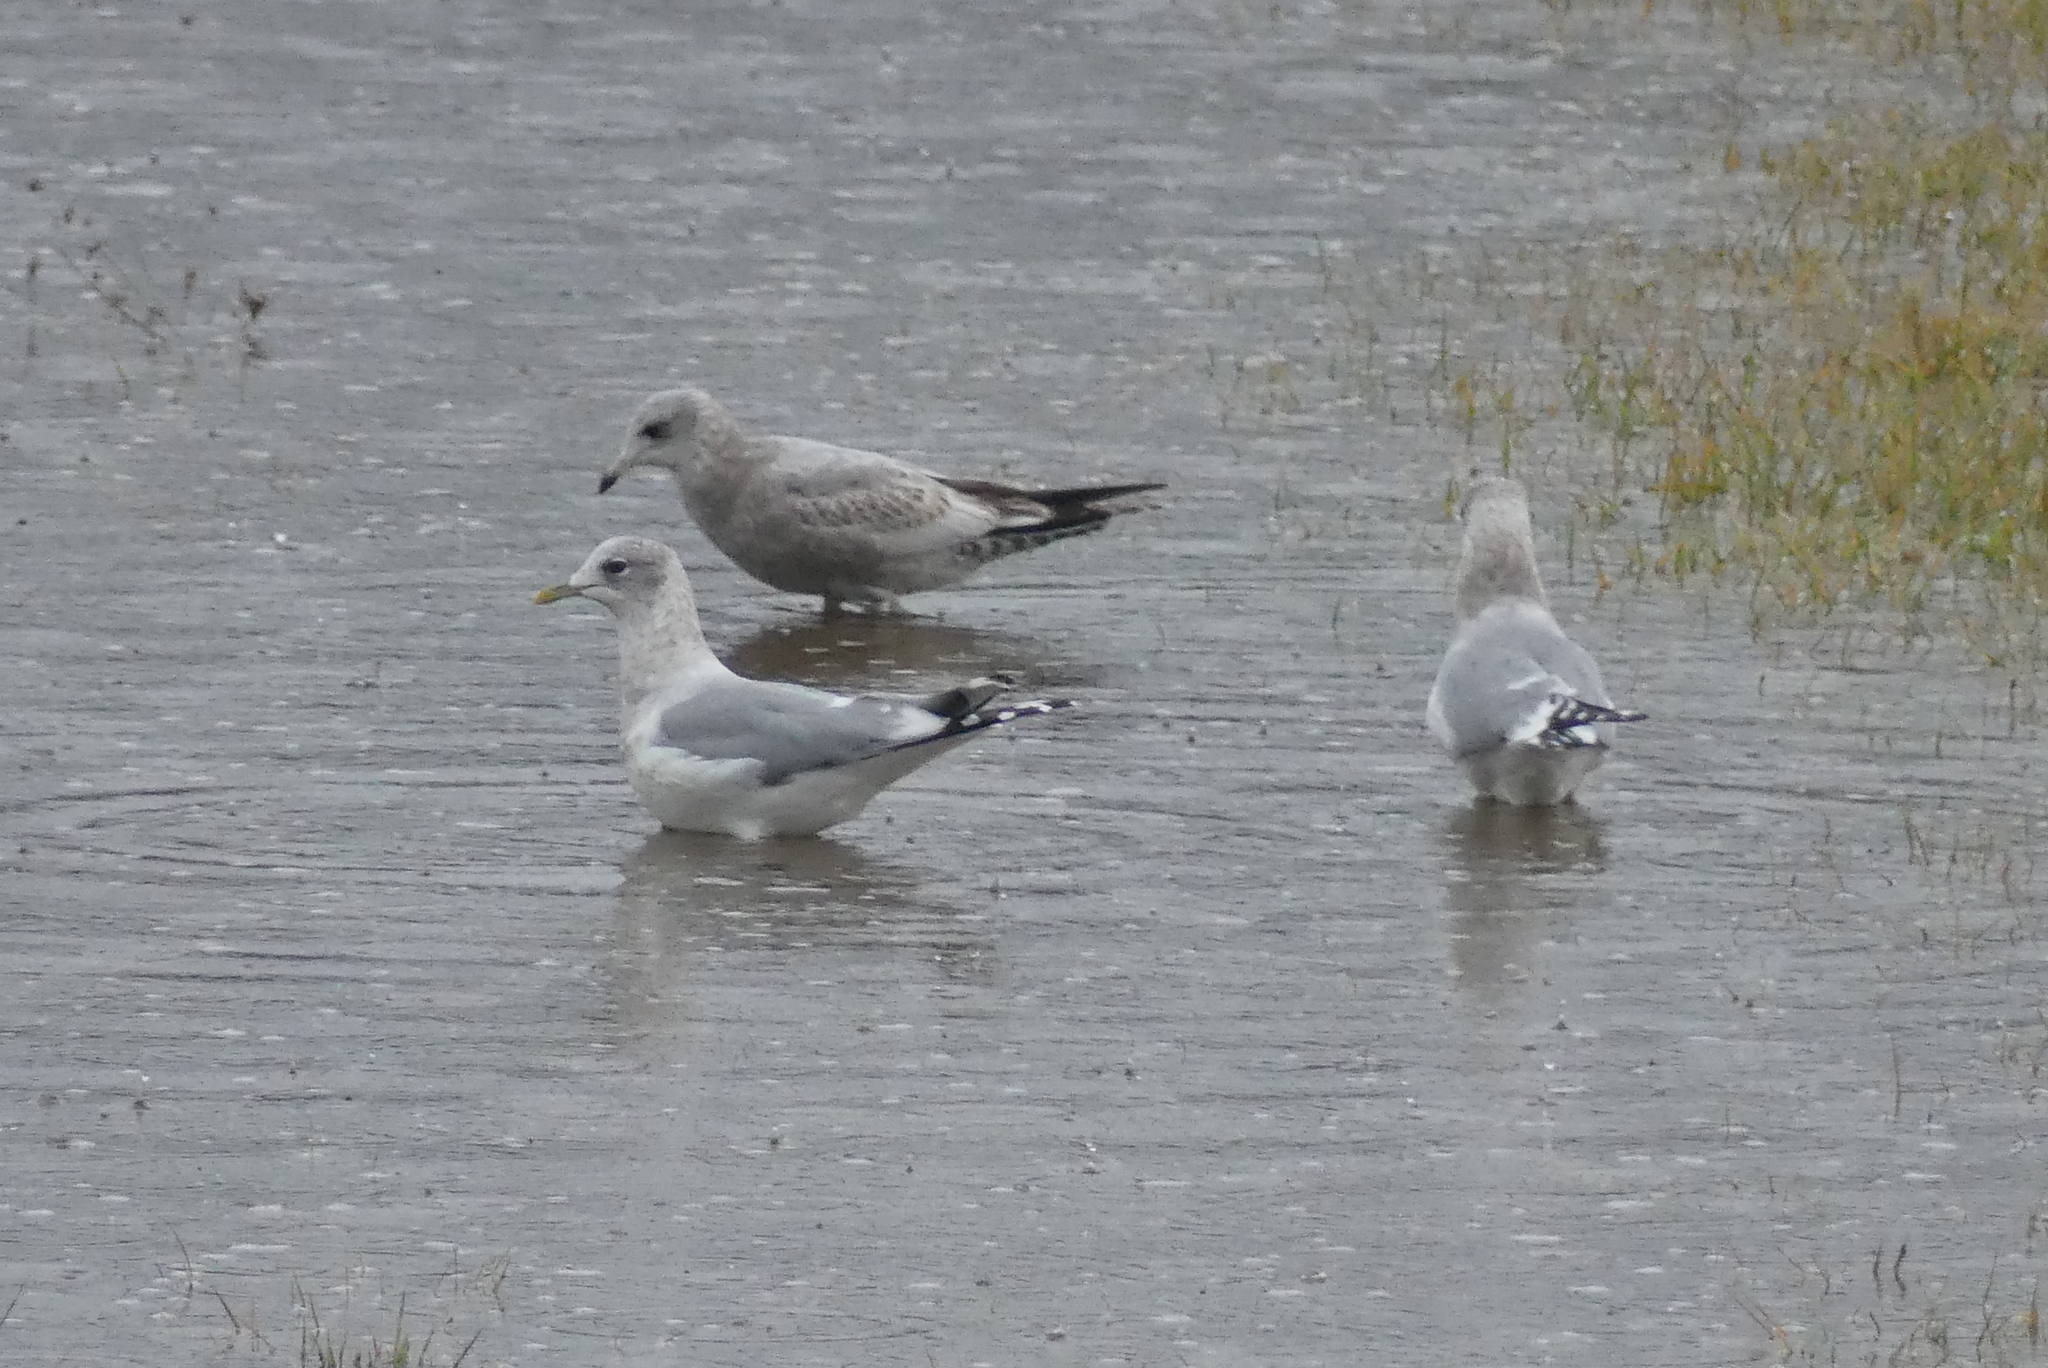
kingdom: Animalia
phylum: Chordata
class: Aves
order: Charadriiformes
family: Laridae
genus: Larus
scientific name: Larus brachyrhynchus
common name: Short-billed gull
